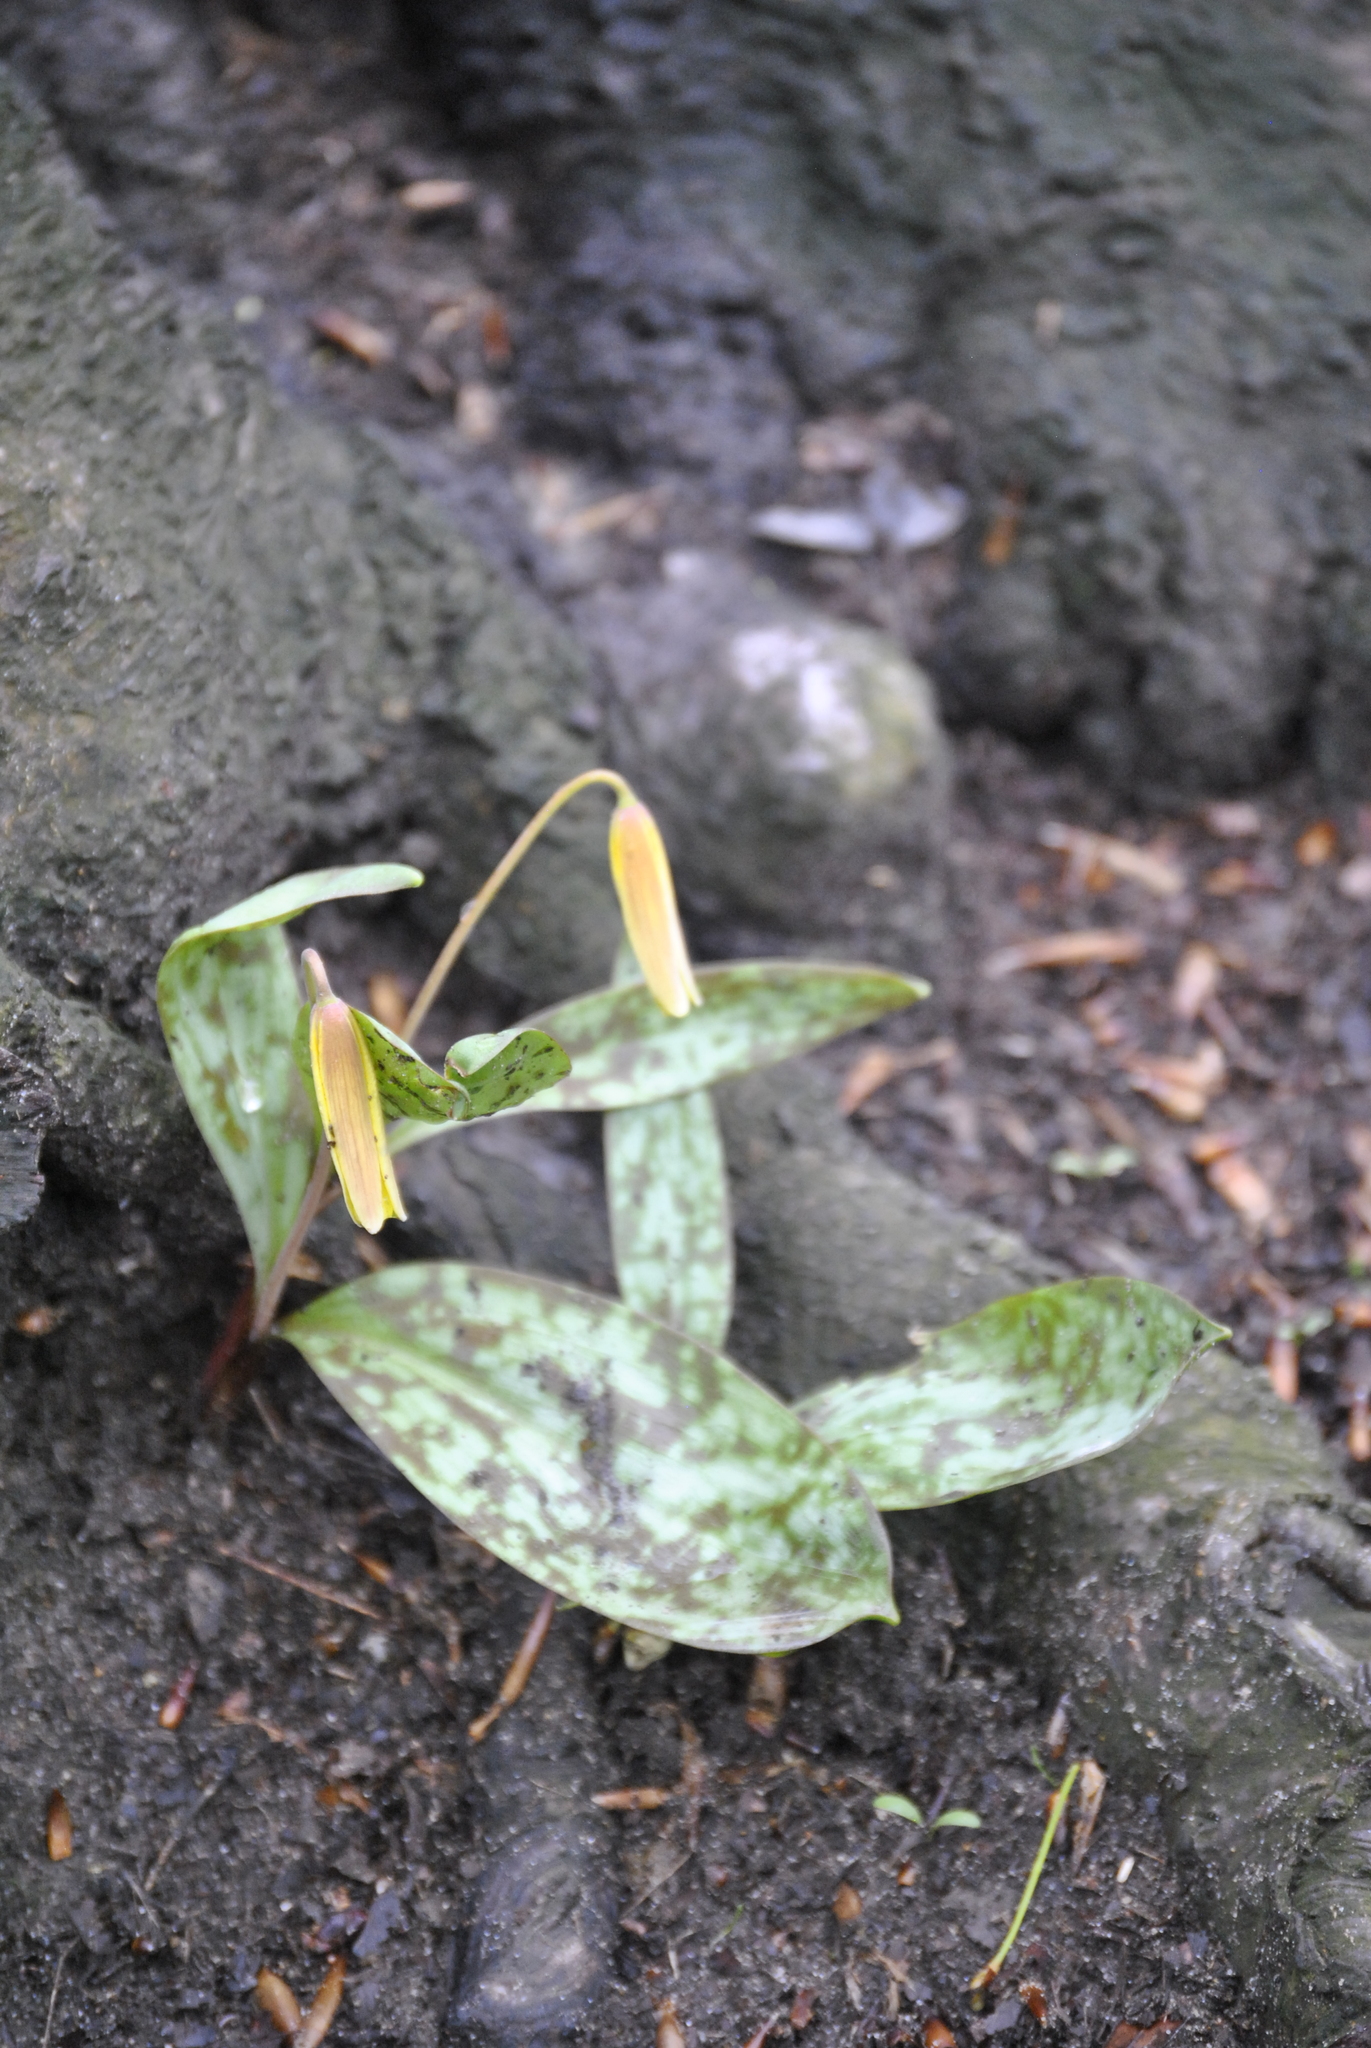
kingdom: Plantae
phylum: Tracheophyta
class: Liliopsida
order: Liliales
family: Liliaceae
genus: Erythronium
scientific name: Erythronium americanum
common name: Yellow adder's-tongue
